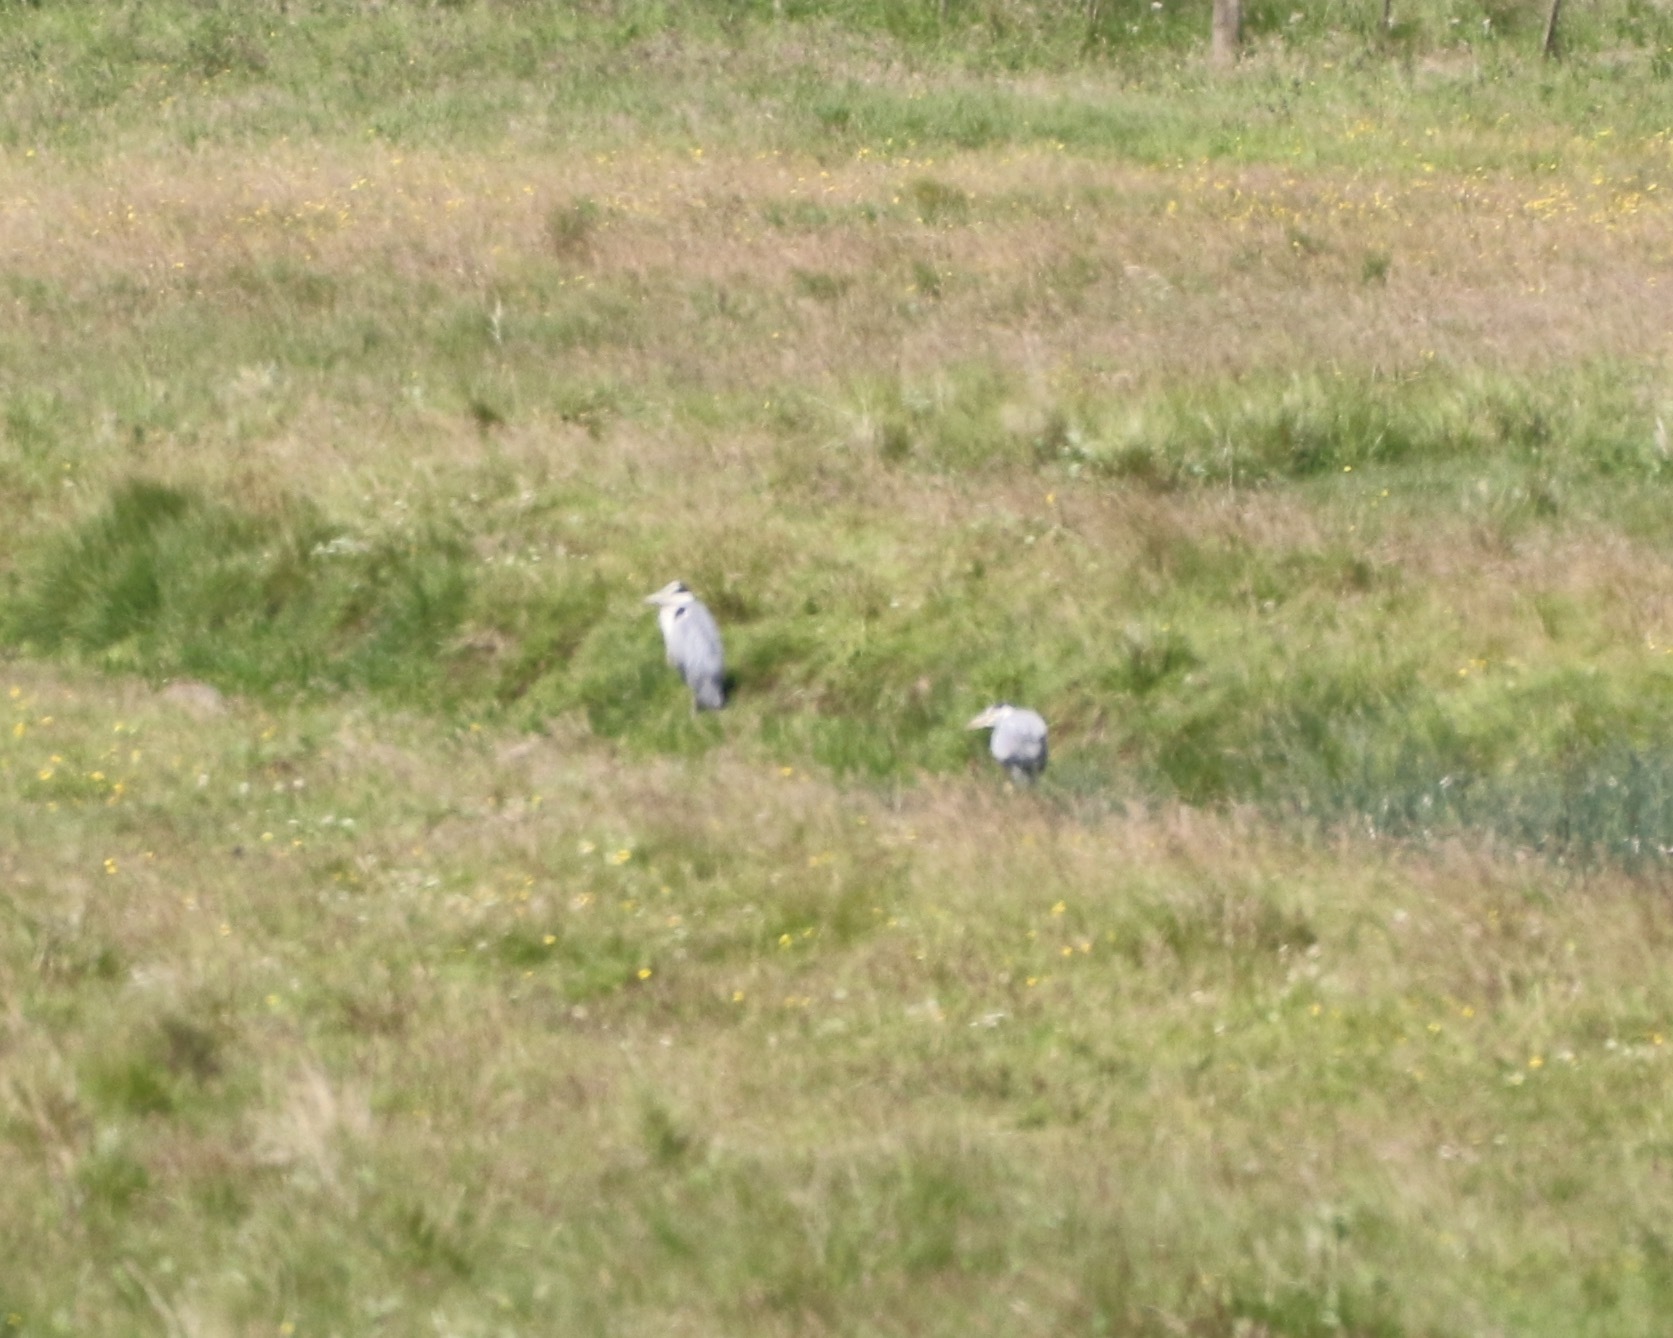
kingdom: Animalia
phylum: Chordata
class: Aves
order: Pelecaniformes
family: Ardeidae
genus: Ardea
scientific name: Ardea cinerea
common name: Grey heron
